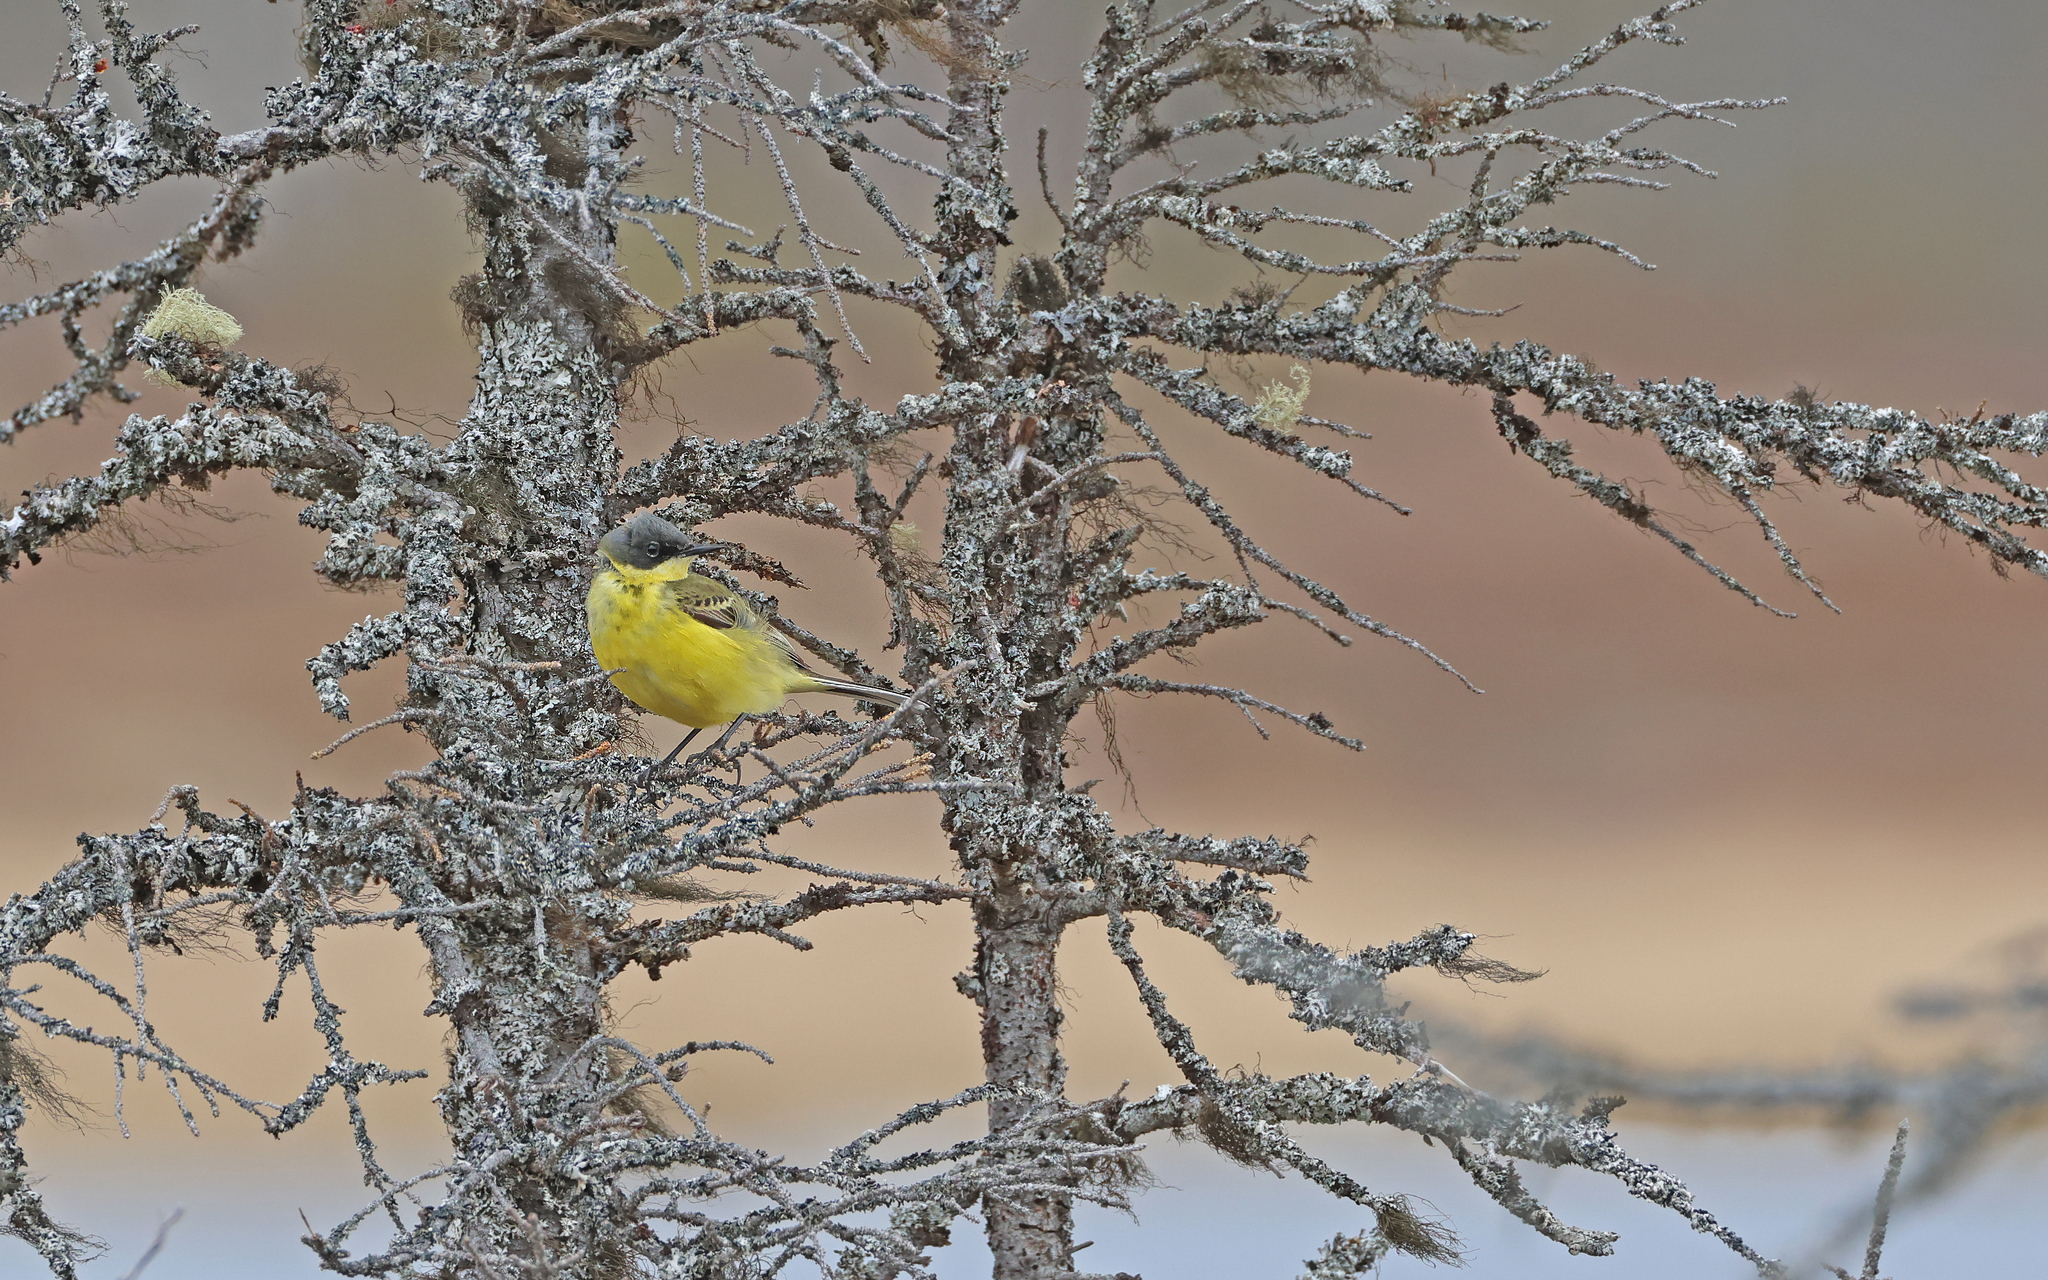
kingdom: Animalia
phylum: Chordata
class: Aves
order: Passeriformes
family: Motacillidae
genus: Motacilla
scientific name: Motacilla flava
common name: Western yellow wagtail
